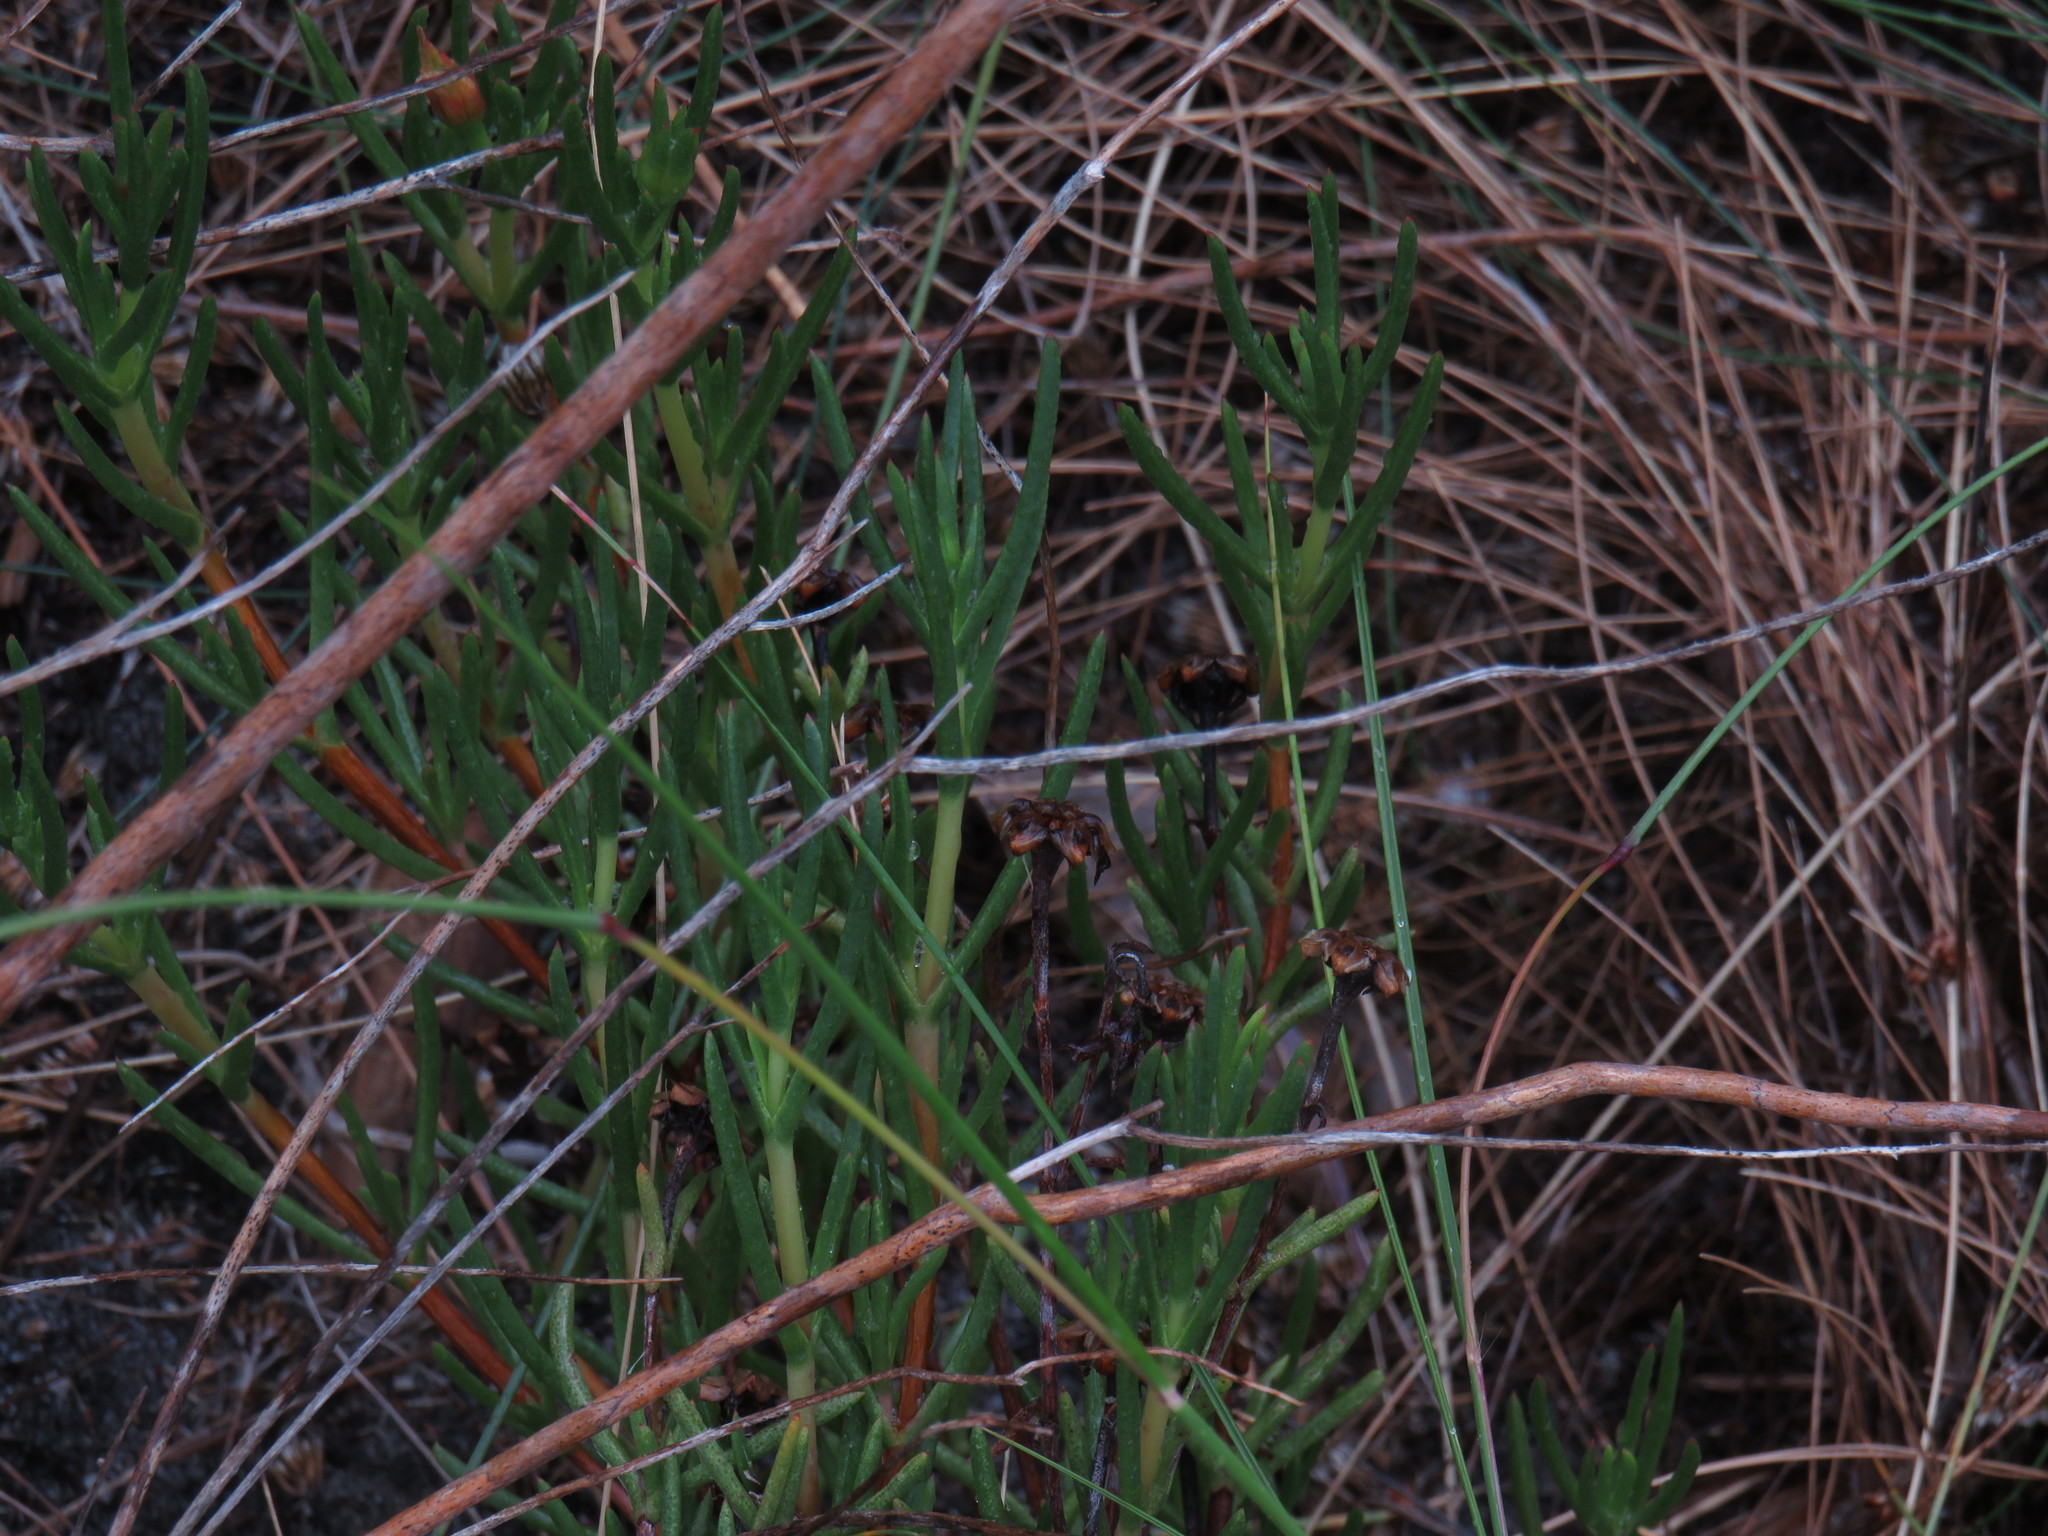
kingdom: Plantae
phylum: Tracheophyta
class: Magnoliopsida
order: Caryophyllales
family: Aizoaceae
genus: Lampranthus
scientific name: Lampranthus bicolor
